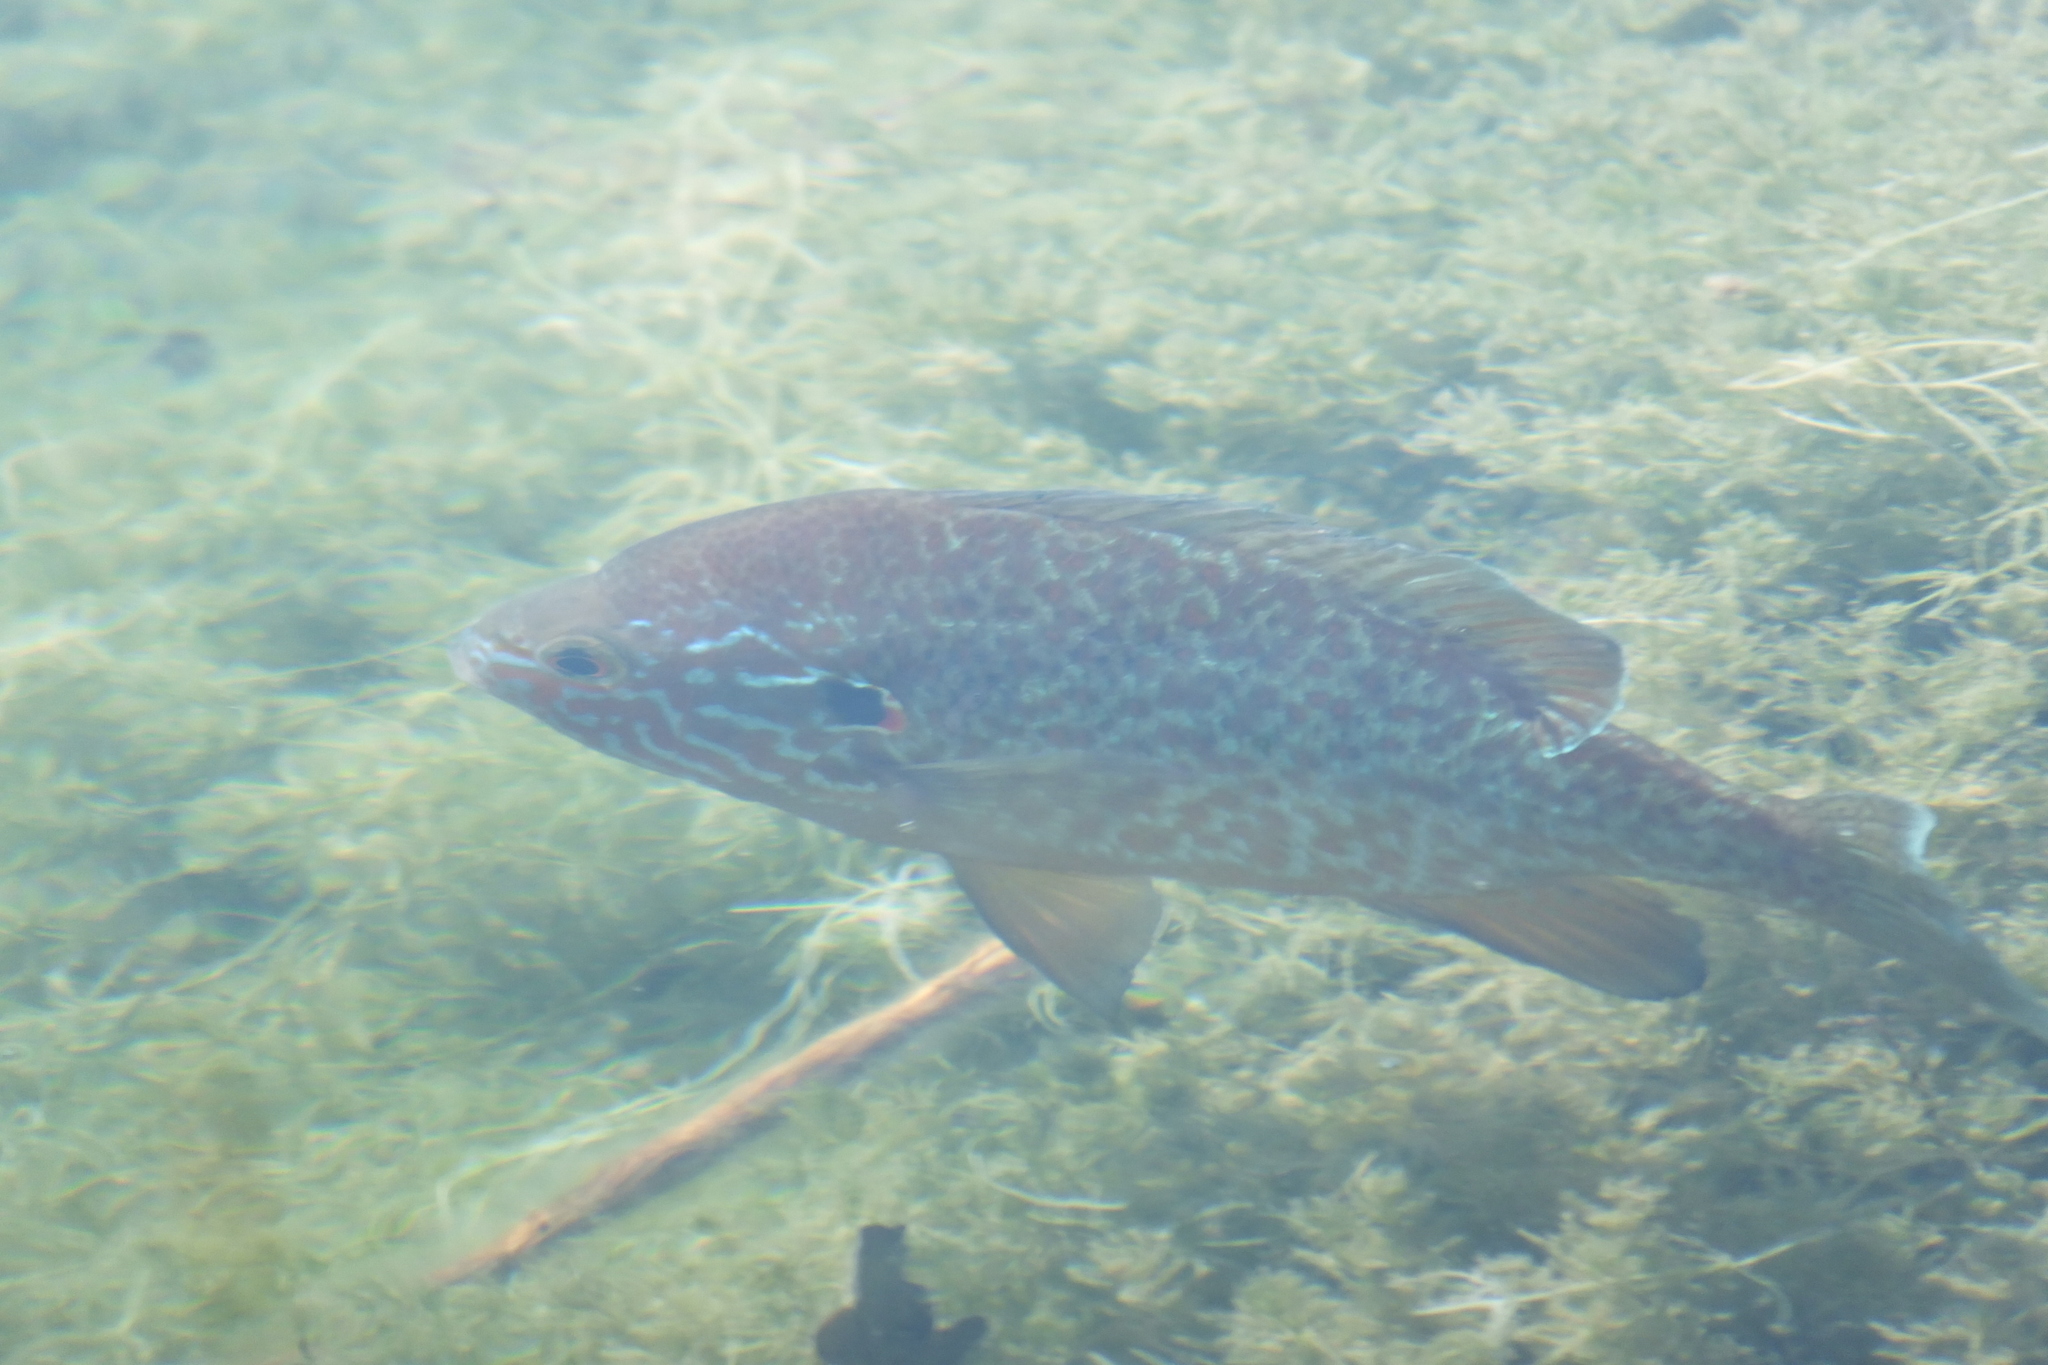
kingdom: Animalia
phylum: Chordata
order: Perciformes
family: Centrarchidae
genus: Lepomis
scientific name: Lepomis gibbosus
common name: Pumpkinseed
